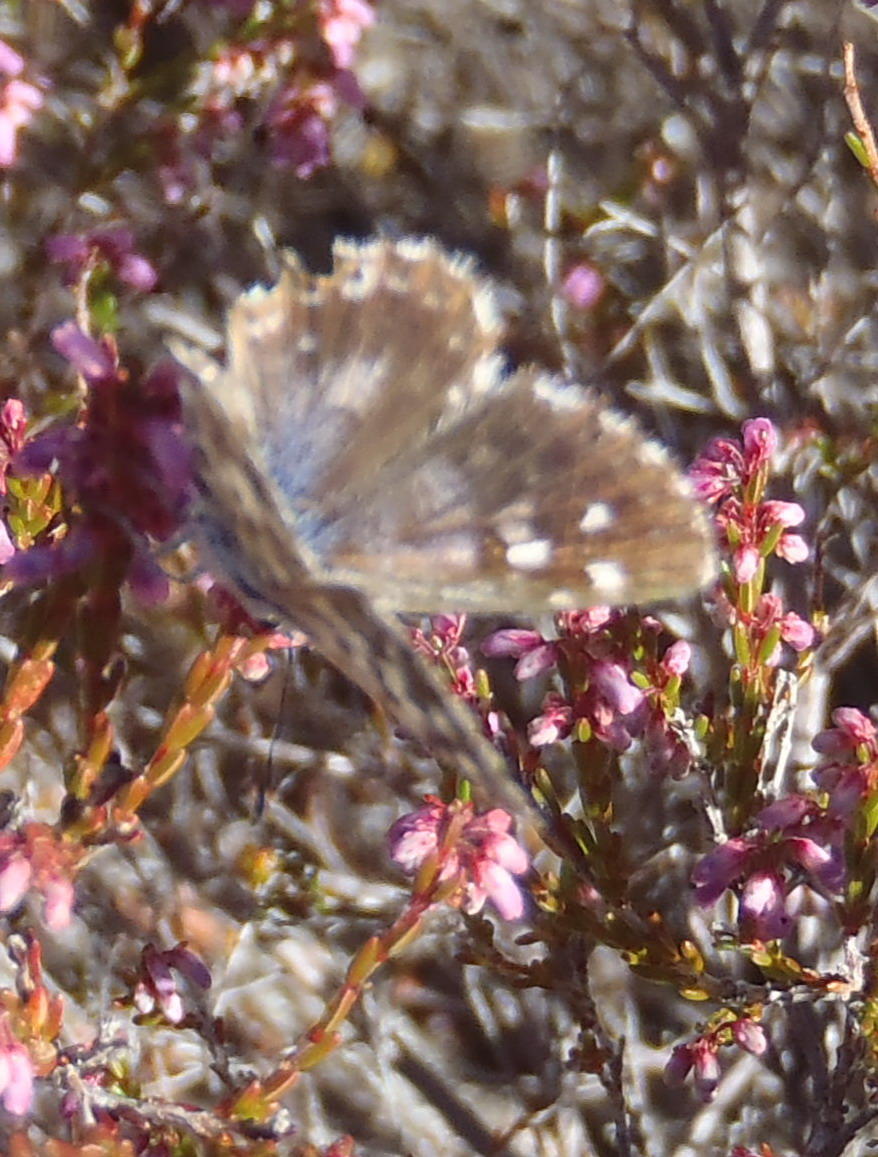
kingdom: Animalia
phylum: Arthropoda
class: Insecta
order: Lepidoptera
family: Lycaenidae
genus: Tarucus
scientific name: Tarucus thespis
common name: Vivid dotted blue
